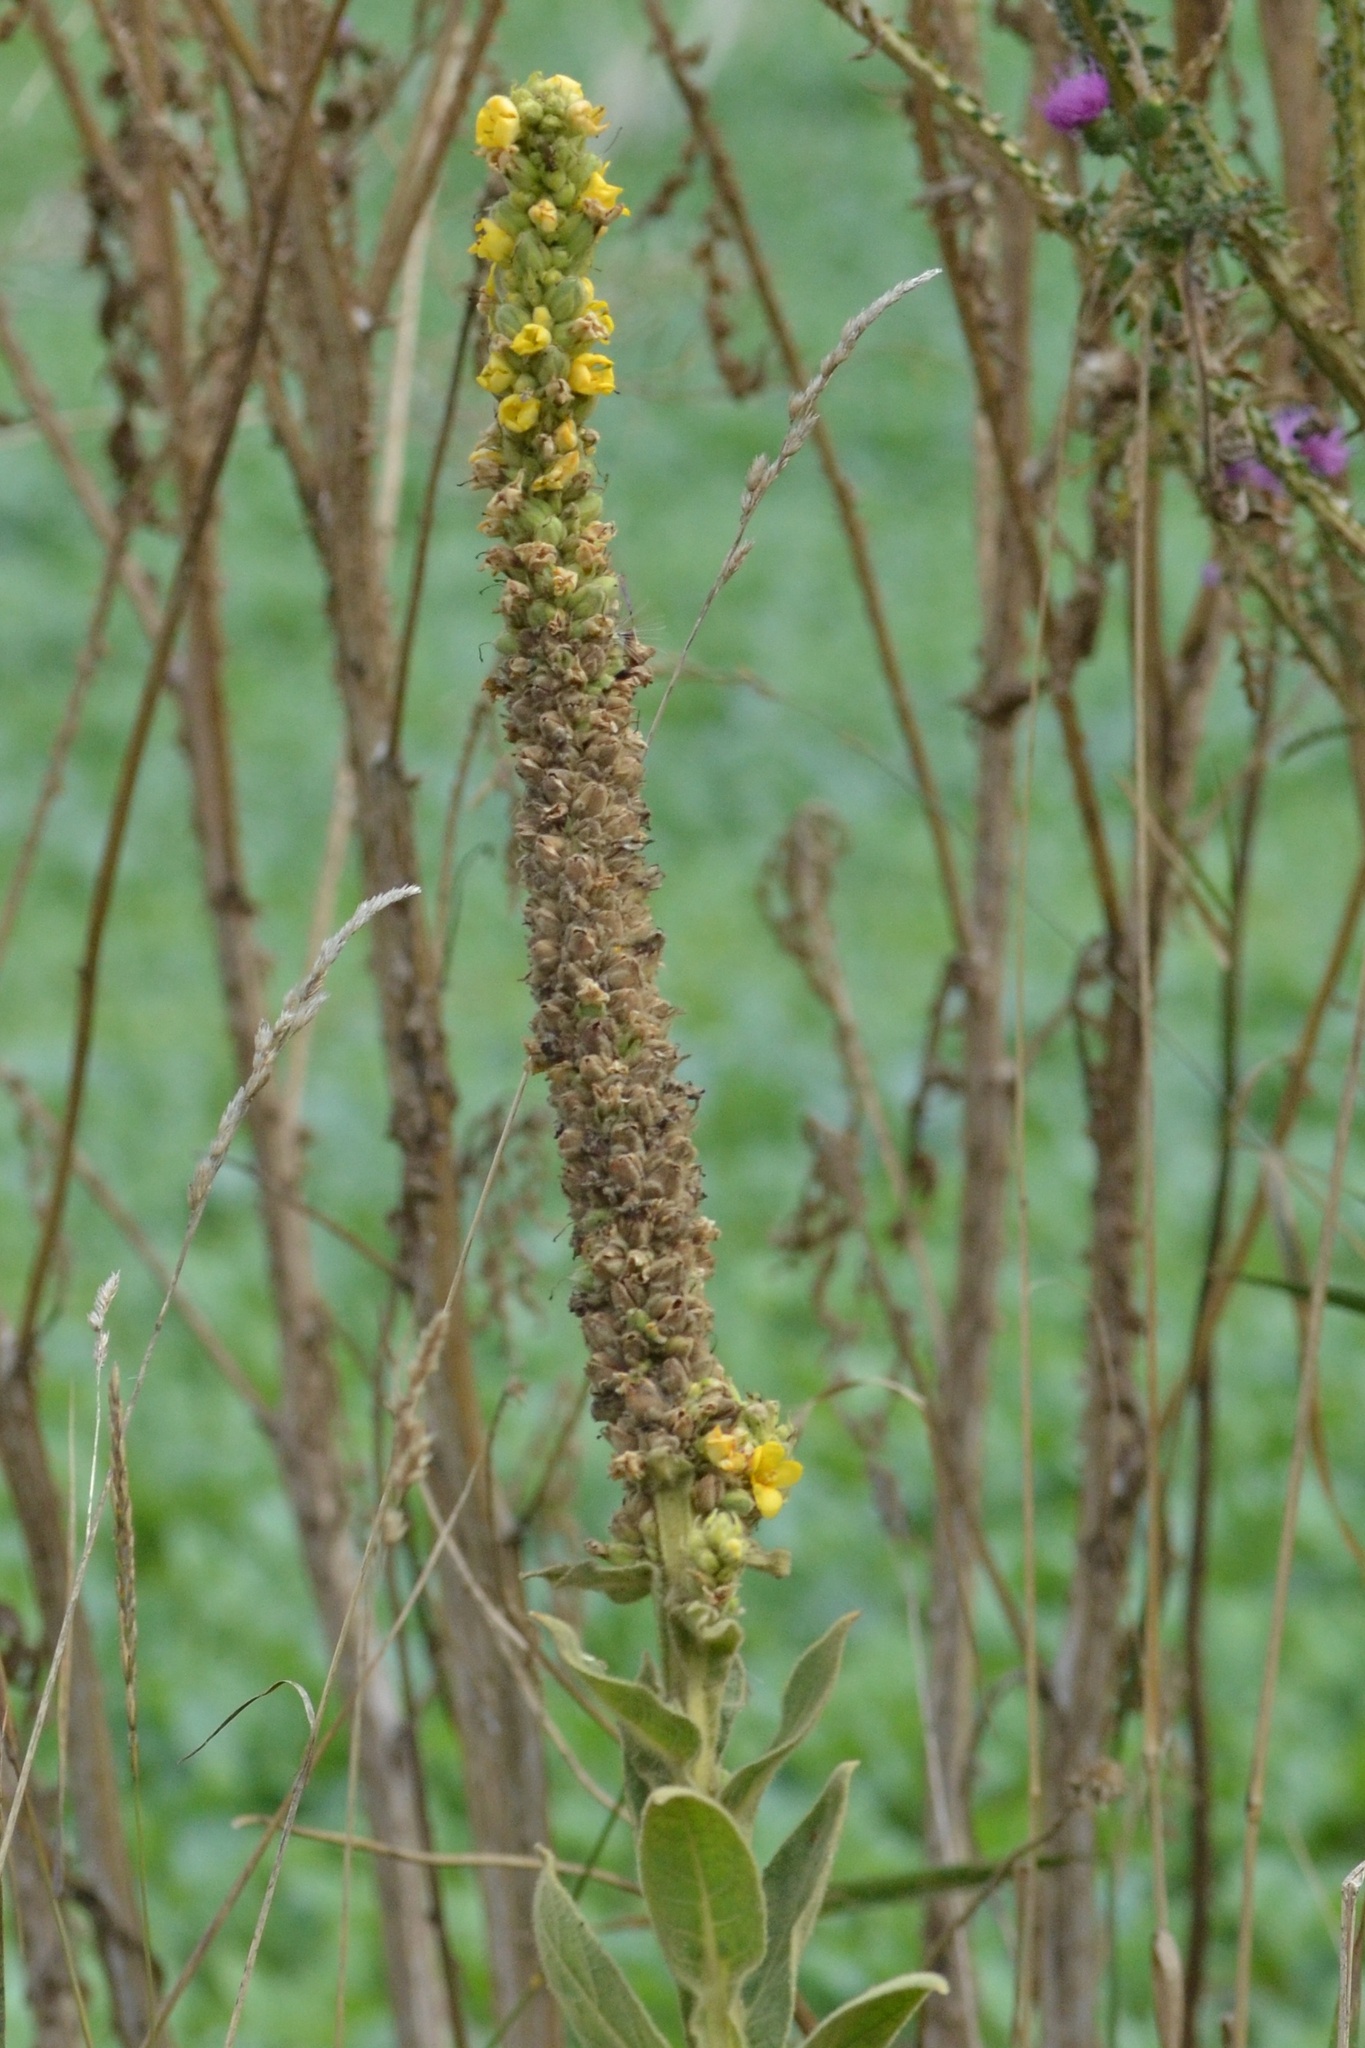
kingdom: Plantae
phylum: Tracheophyta
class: Magnoliopsida
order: Lamiales
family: Scrophulariaceae
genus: Verbascum
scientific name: Verbascum thapsus
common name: Common mullein
